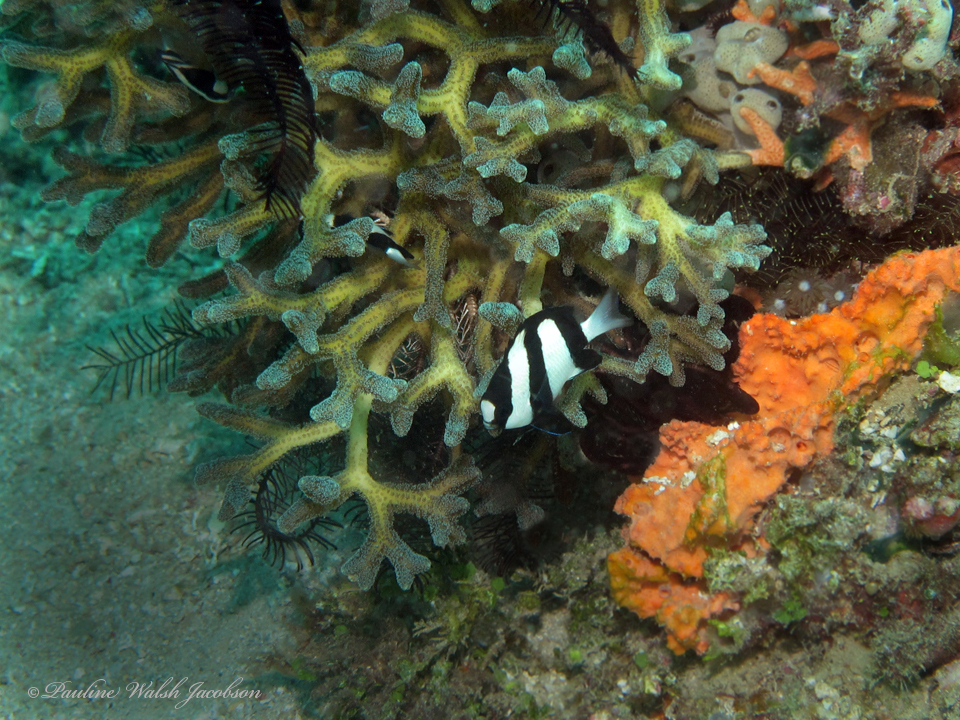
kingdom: Animalia
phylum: Chordata
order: Perciformes
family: Pomacentridae
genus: Dascyllus
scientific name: Dascyllus aruanus
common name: Humbug dascyllus
